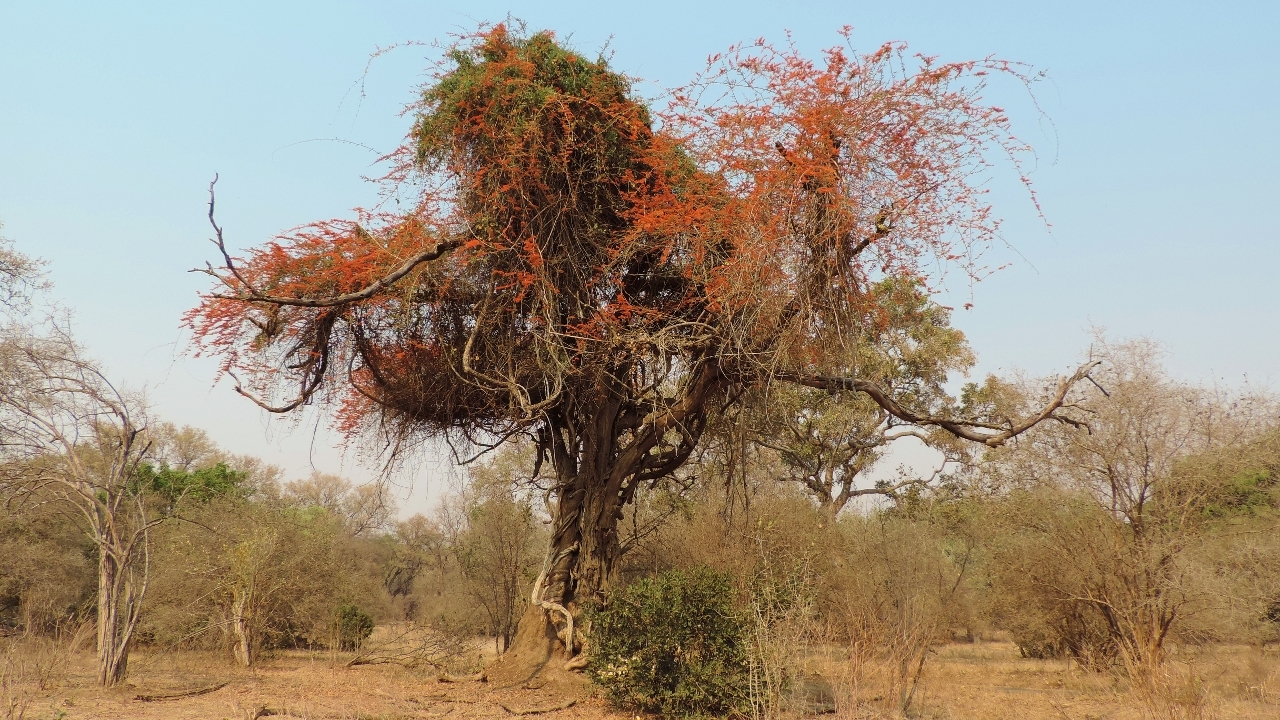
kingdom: Plantae
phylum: Tracheophyta
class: Magnoliopsida
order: Myrtales
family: Combretaceae
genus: Combretum
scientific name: Combretum microphyllum
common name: Burningbush
